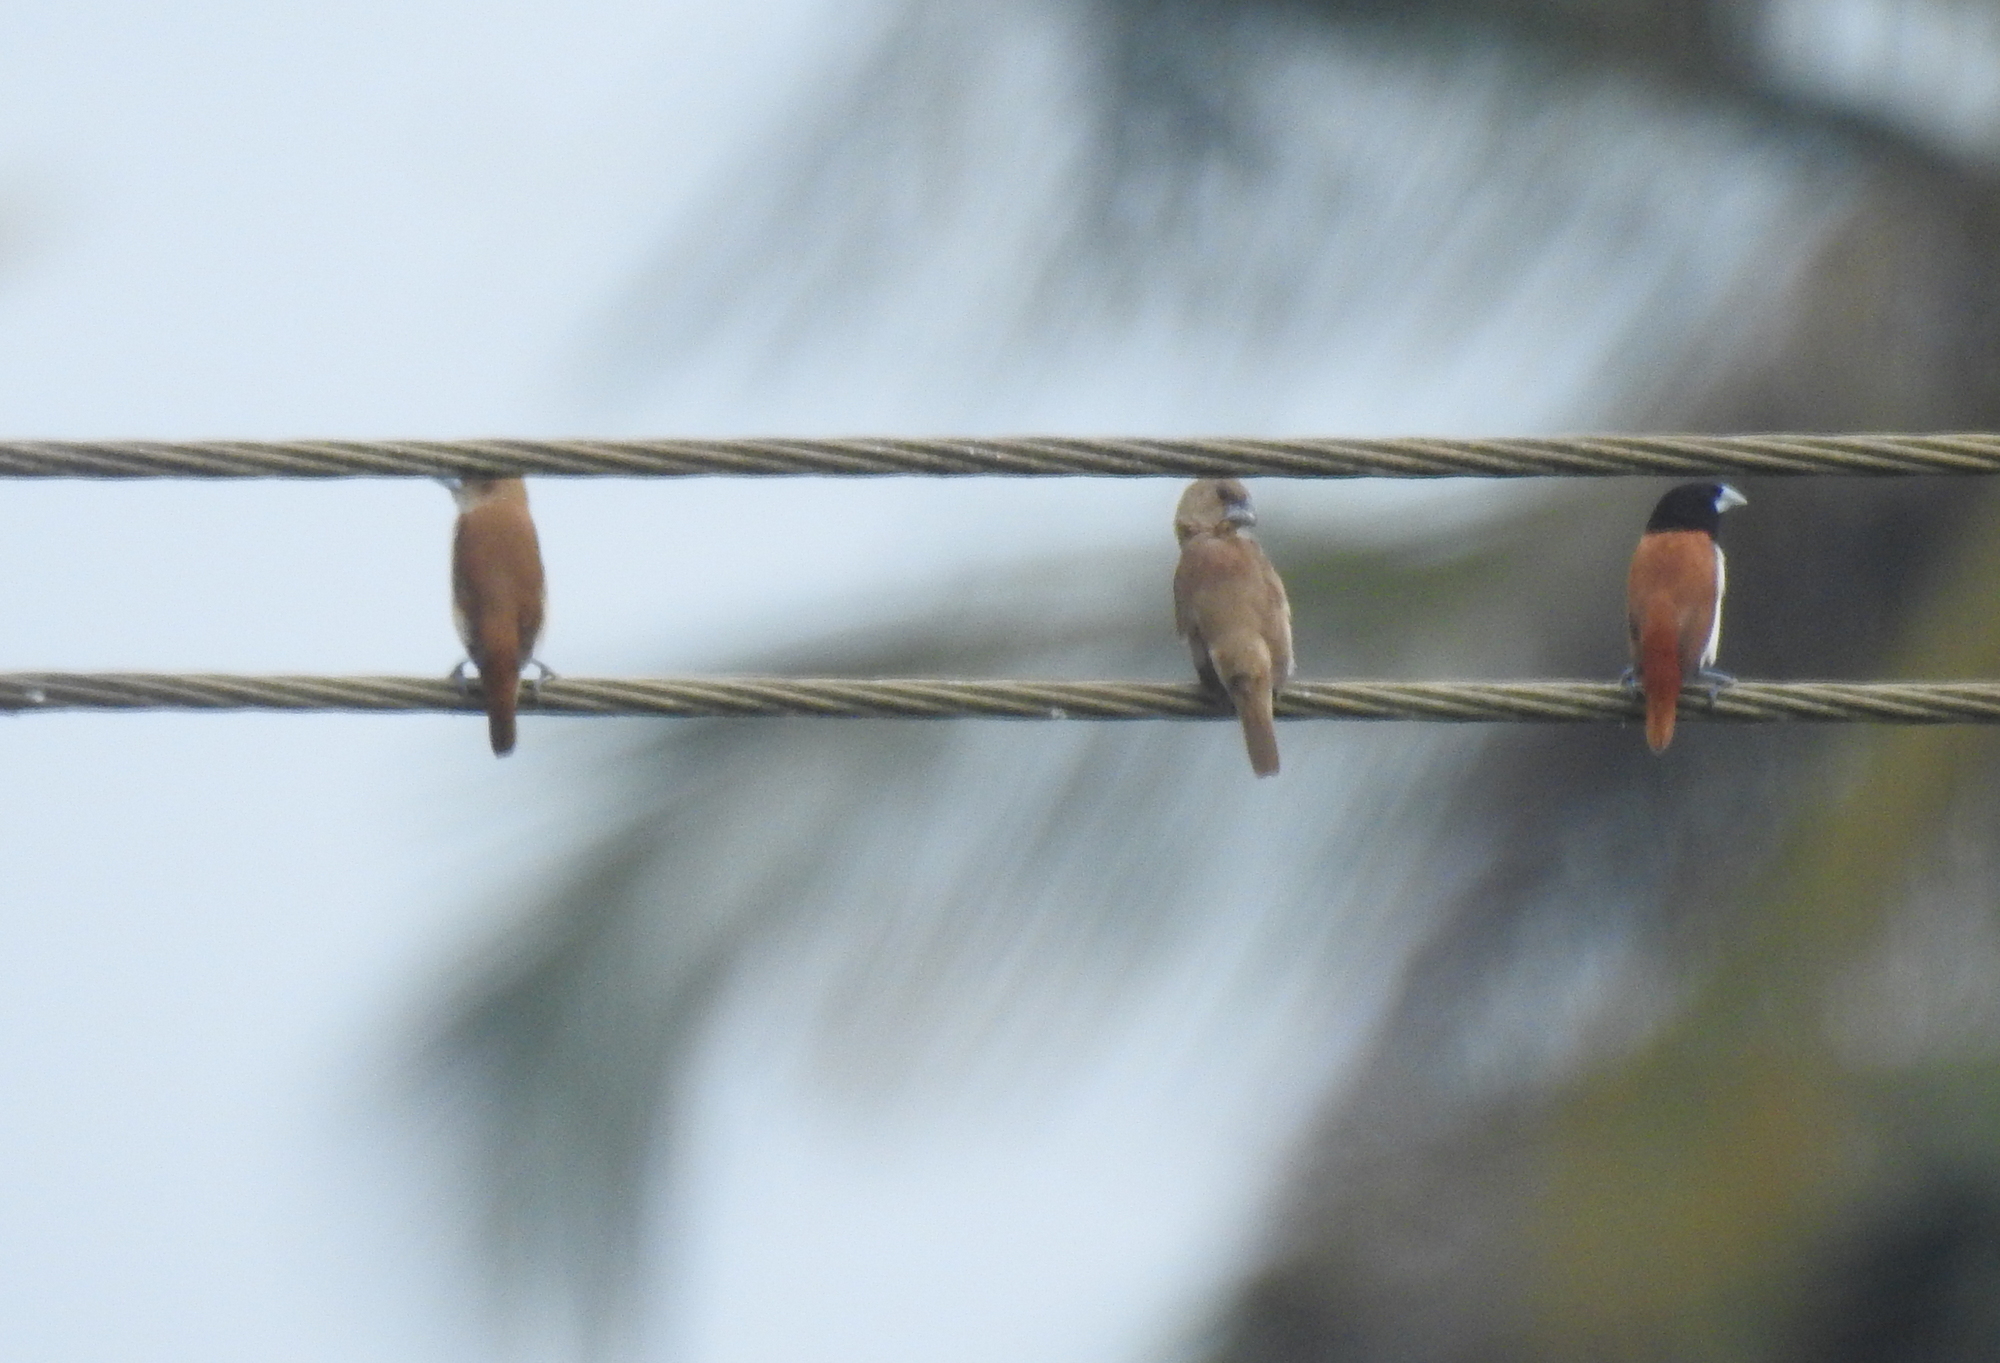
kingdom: Animalia
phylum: Chordata
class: Aves
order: Passeriformes
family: Estrildidae
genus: Lonchura
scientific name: Lonchura malacca
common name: Tricolored munia
